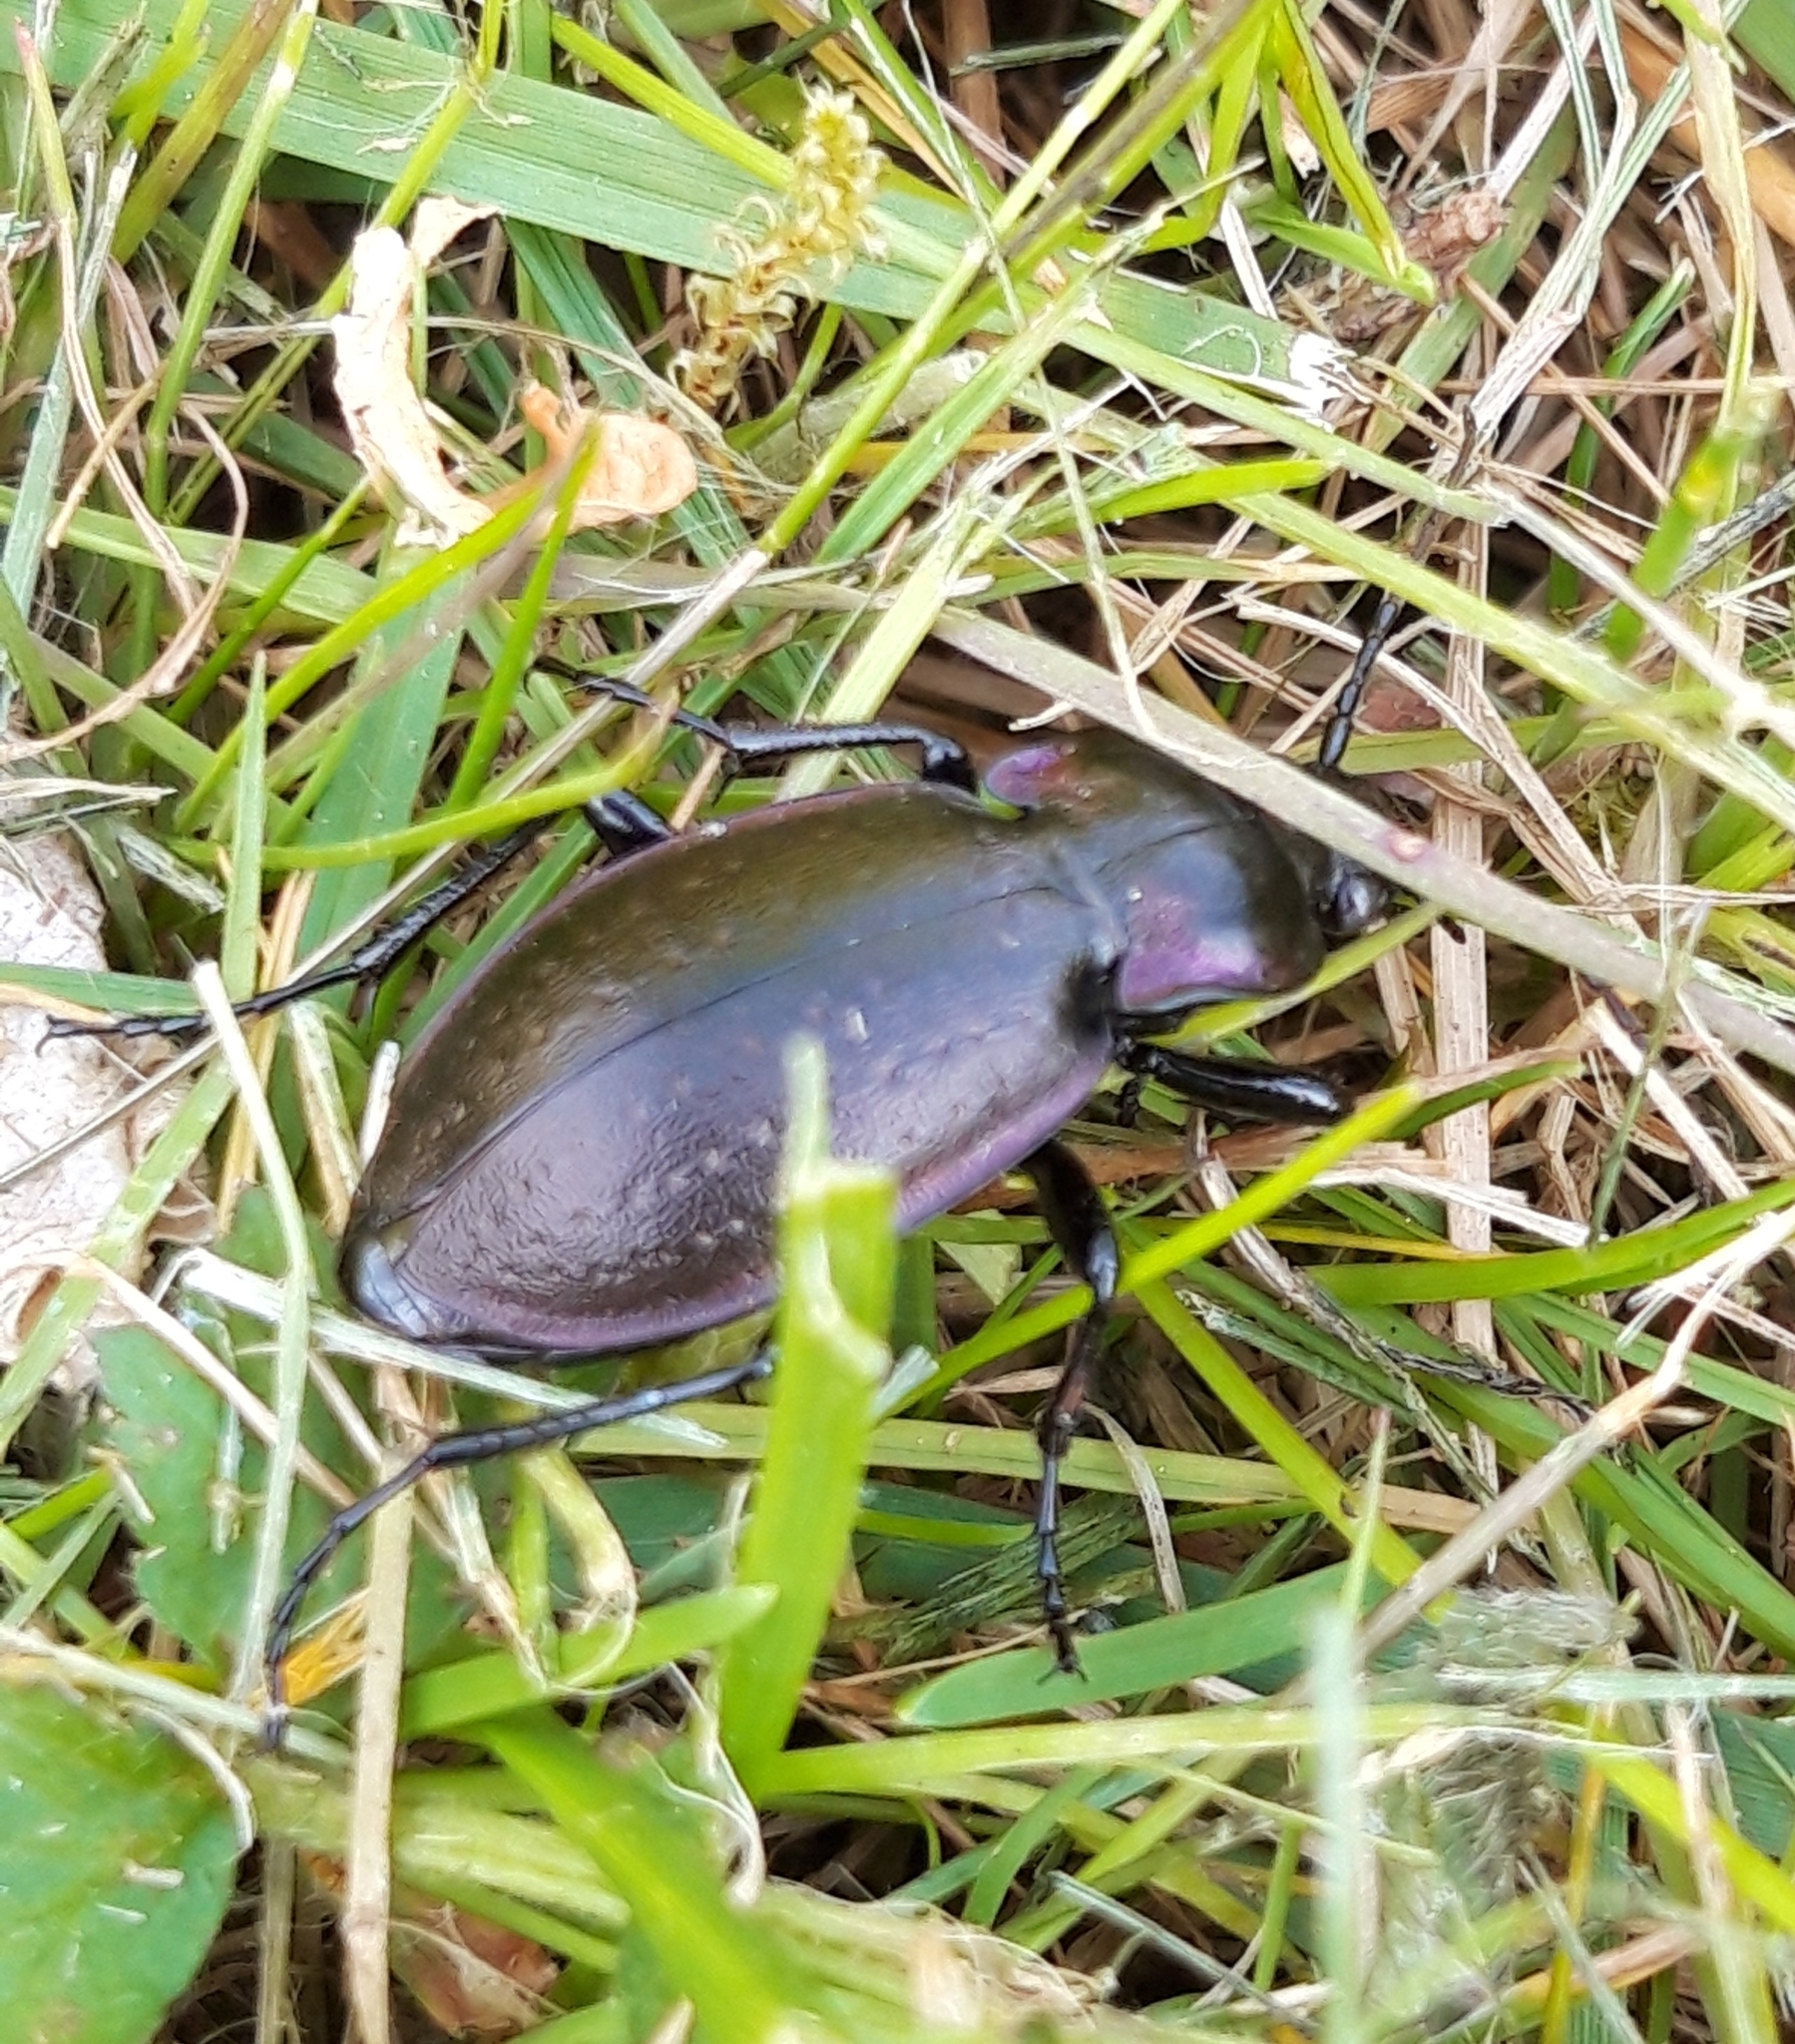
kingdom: Animalia
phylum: Arthropoda
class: Insecta
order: Coleoptera
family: Carabidae
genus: Carabus
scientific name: Carabus nemoralis
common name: European ground beetle
